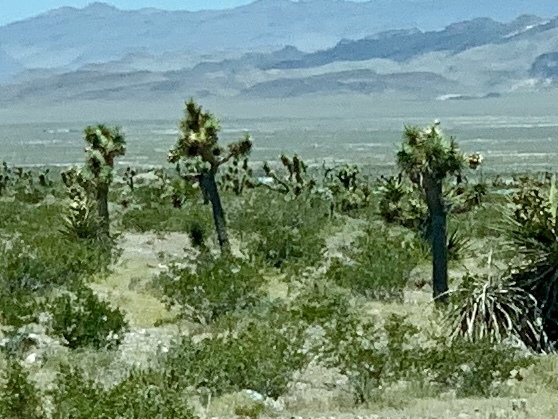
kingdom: Plantae
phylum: Tracheophyta
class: Liliopsida
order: Asparagales
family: Asparagaceae
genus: Yucca
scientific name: Yucca brevifolia
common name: Joshua tree
